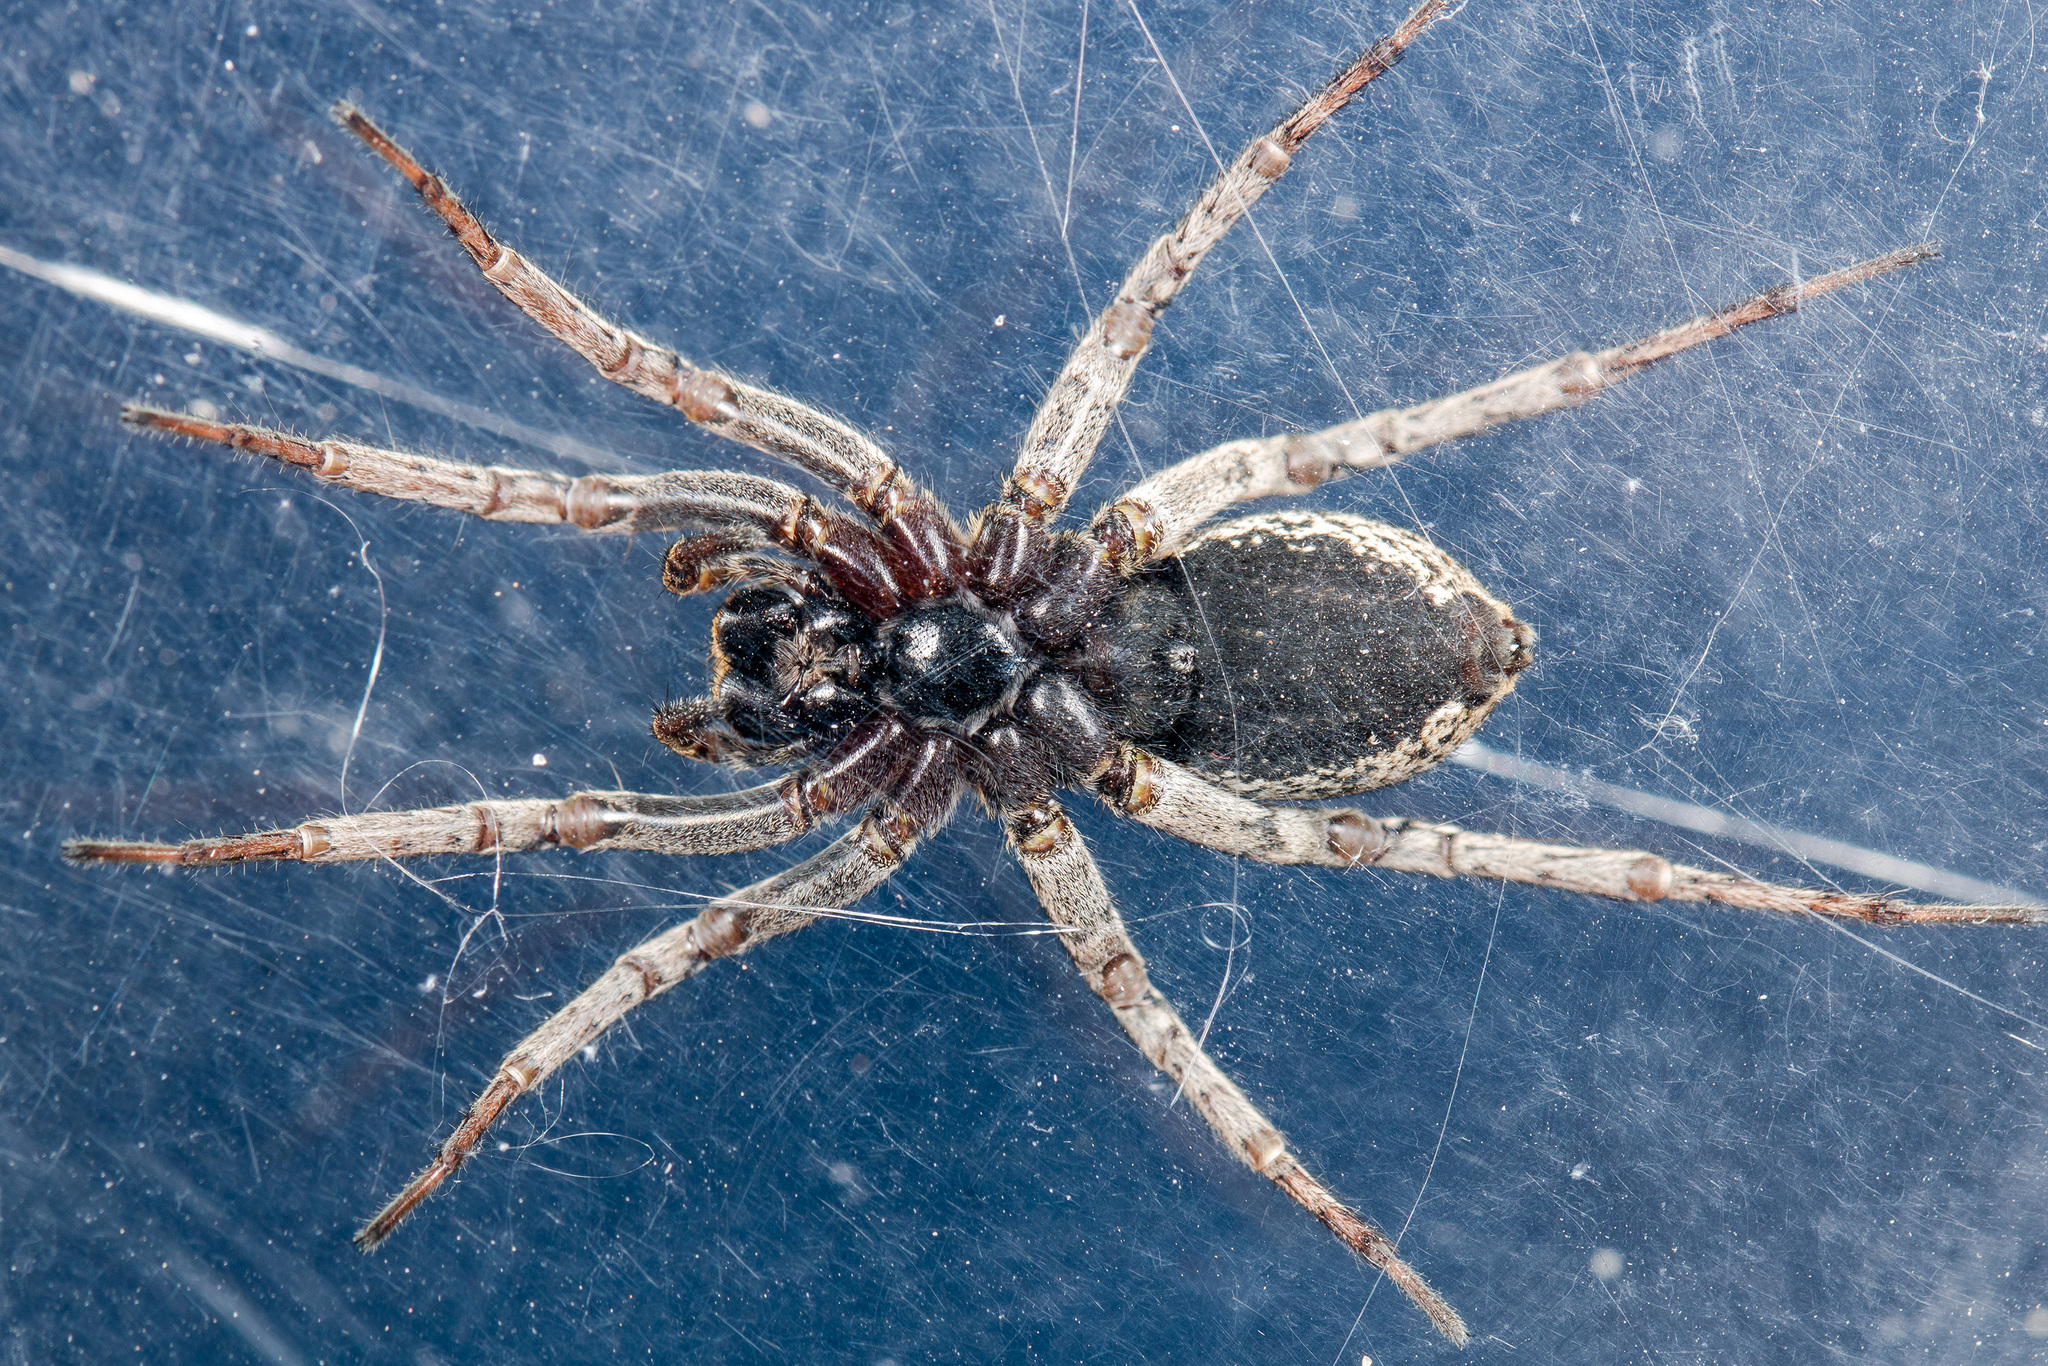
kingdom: Animalia
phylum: Arthropoda
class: Arachnida
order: Araneae
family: Lycosidae
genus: Alopecosa
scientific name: Alopecosa fedotovi
